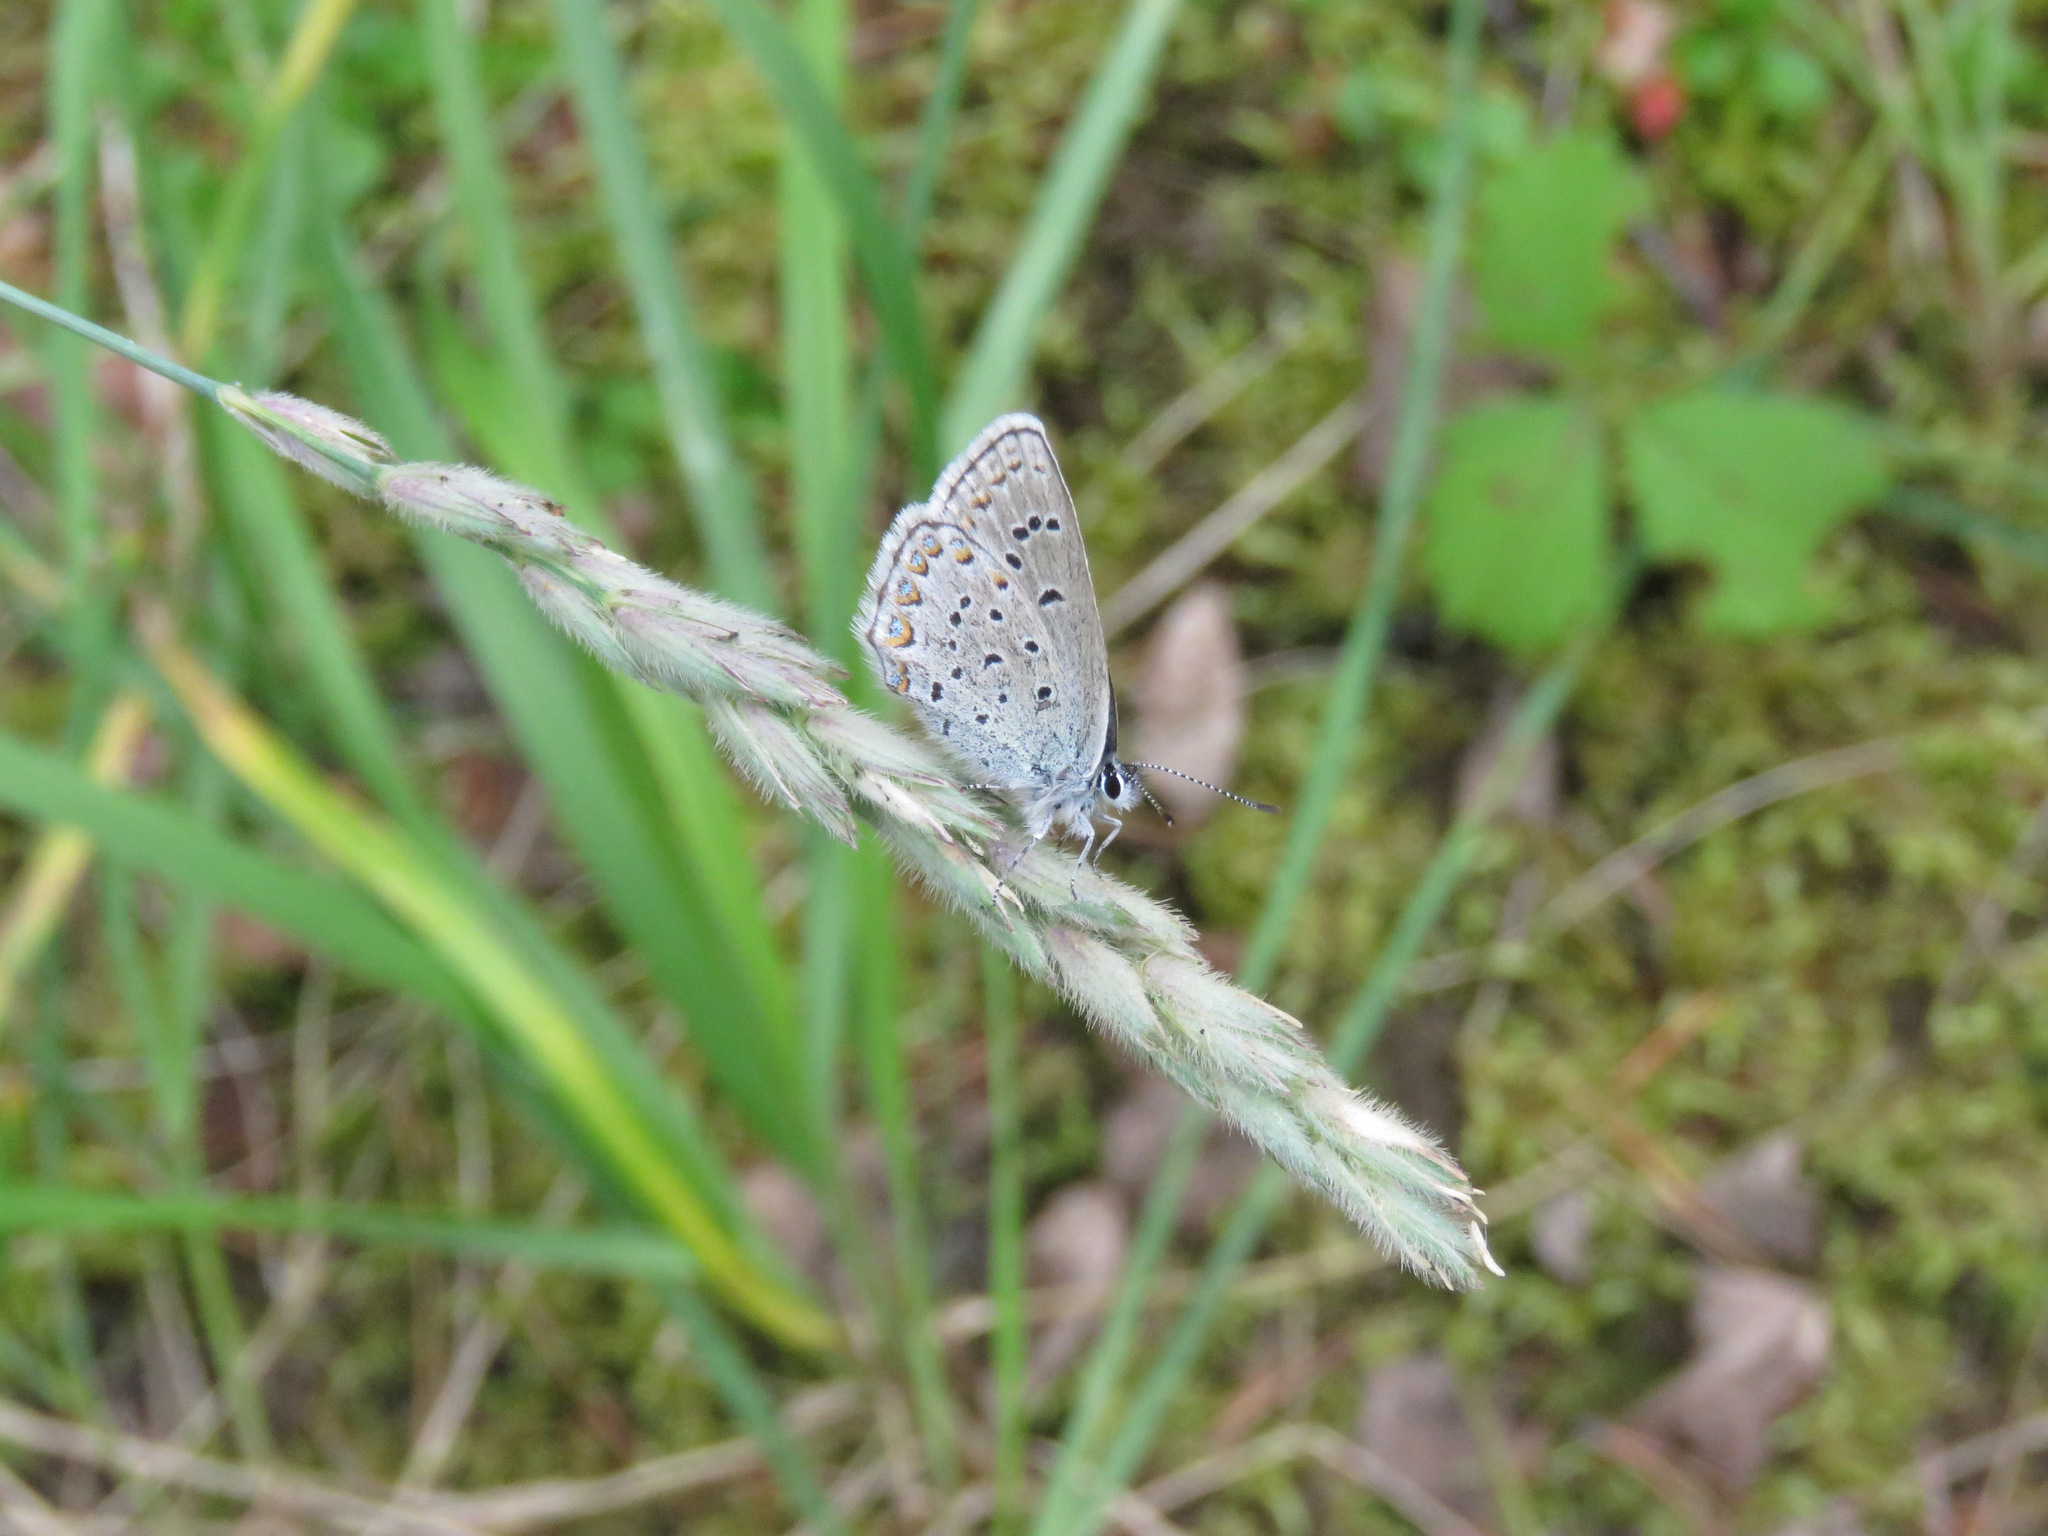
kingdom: Animalia
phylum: Arthropoda
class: Insecta
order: Lepidoptera
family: Lycaenidae
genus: Lycaeides
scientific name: Lycaeides idas
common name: Northern blue
